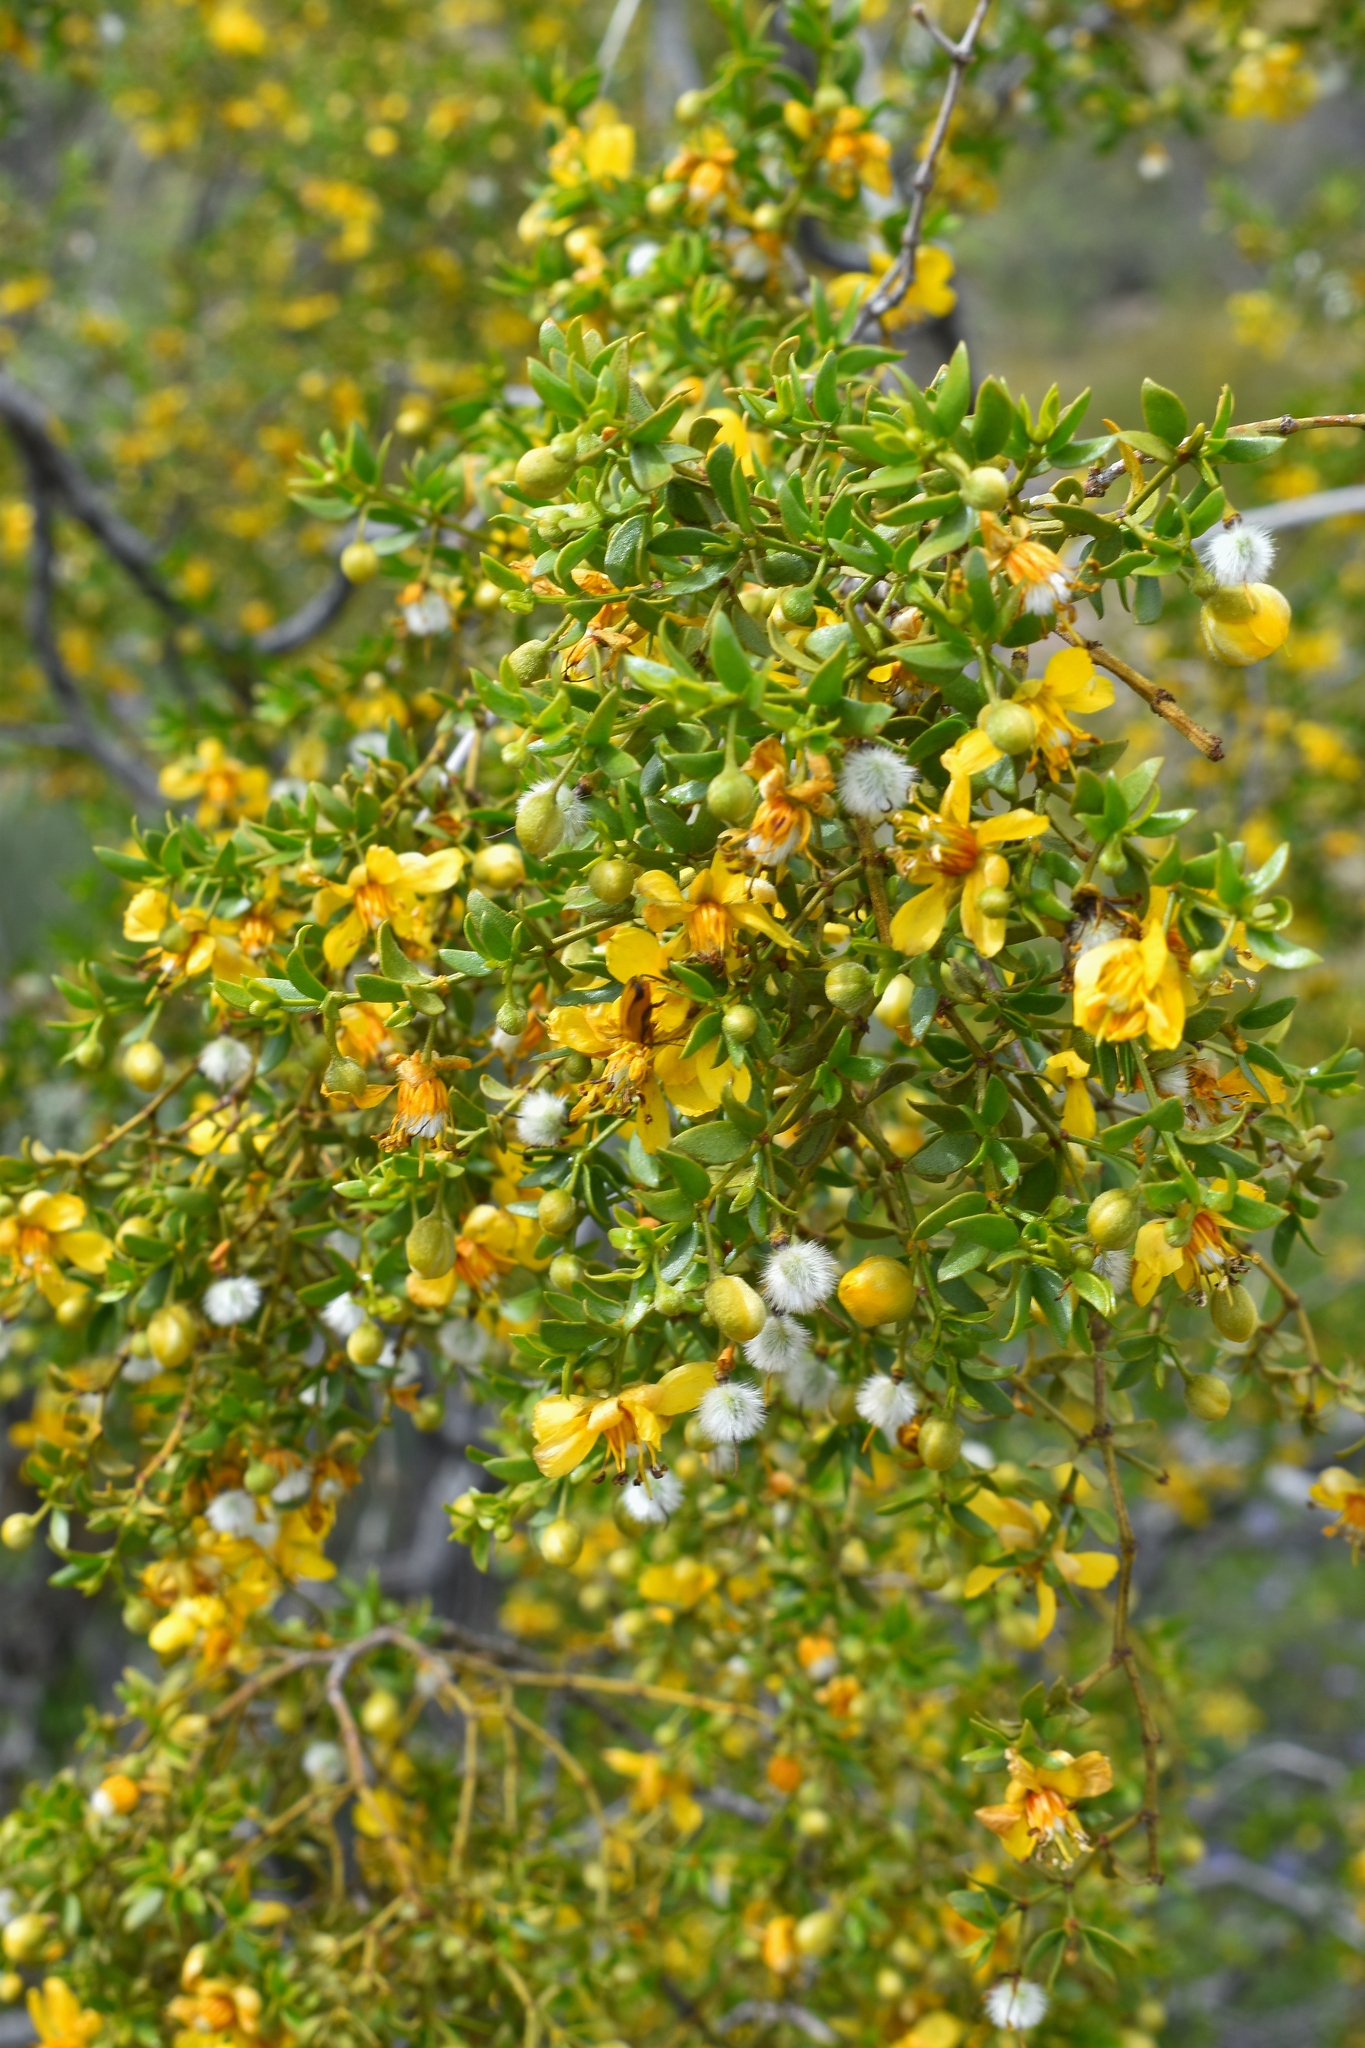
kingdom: Plantae
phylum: Tracheophyta
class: Magnoliopsida
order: Zygophyllales
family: Zygophyllaceae
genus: Larrea
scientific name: Larrea tridentata
